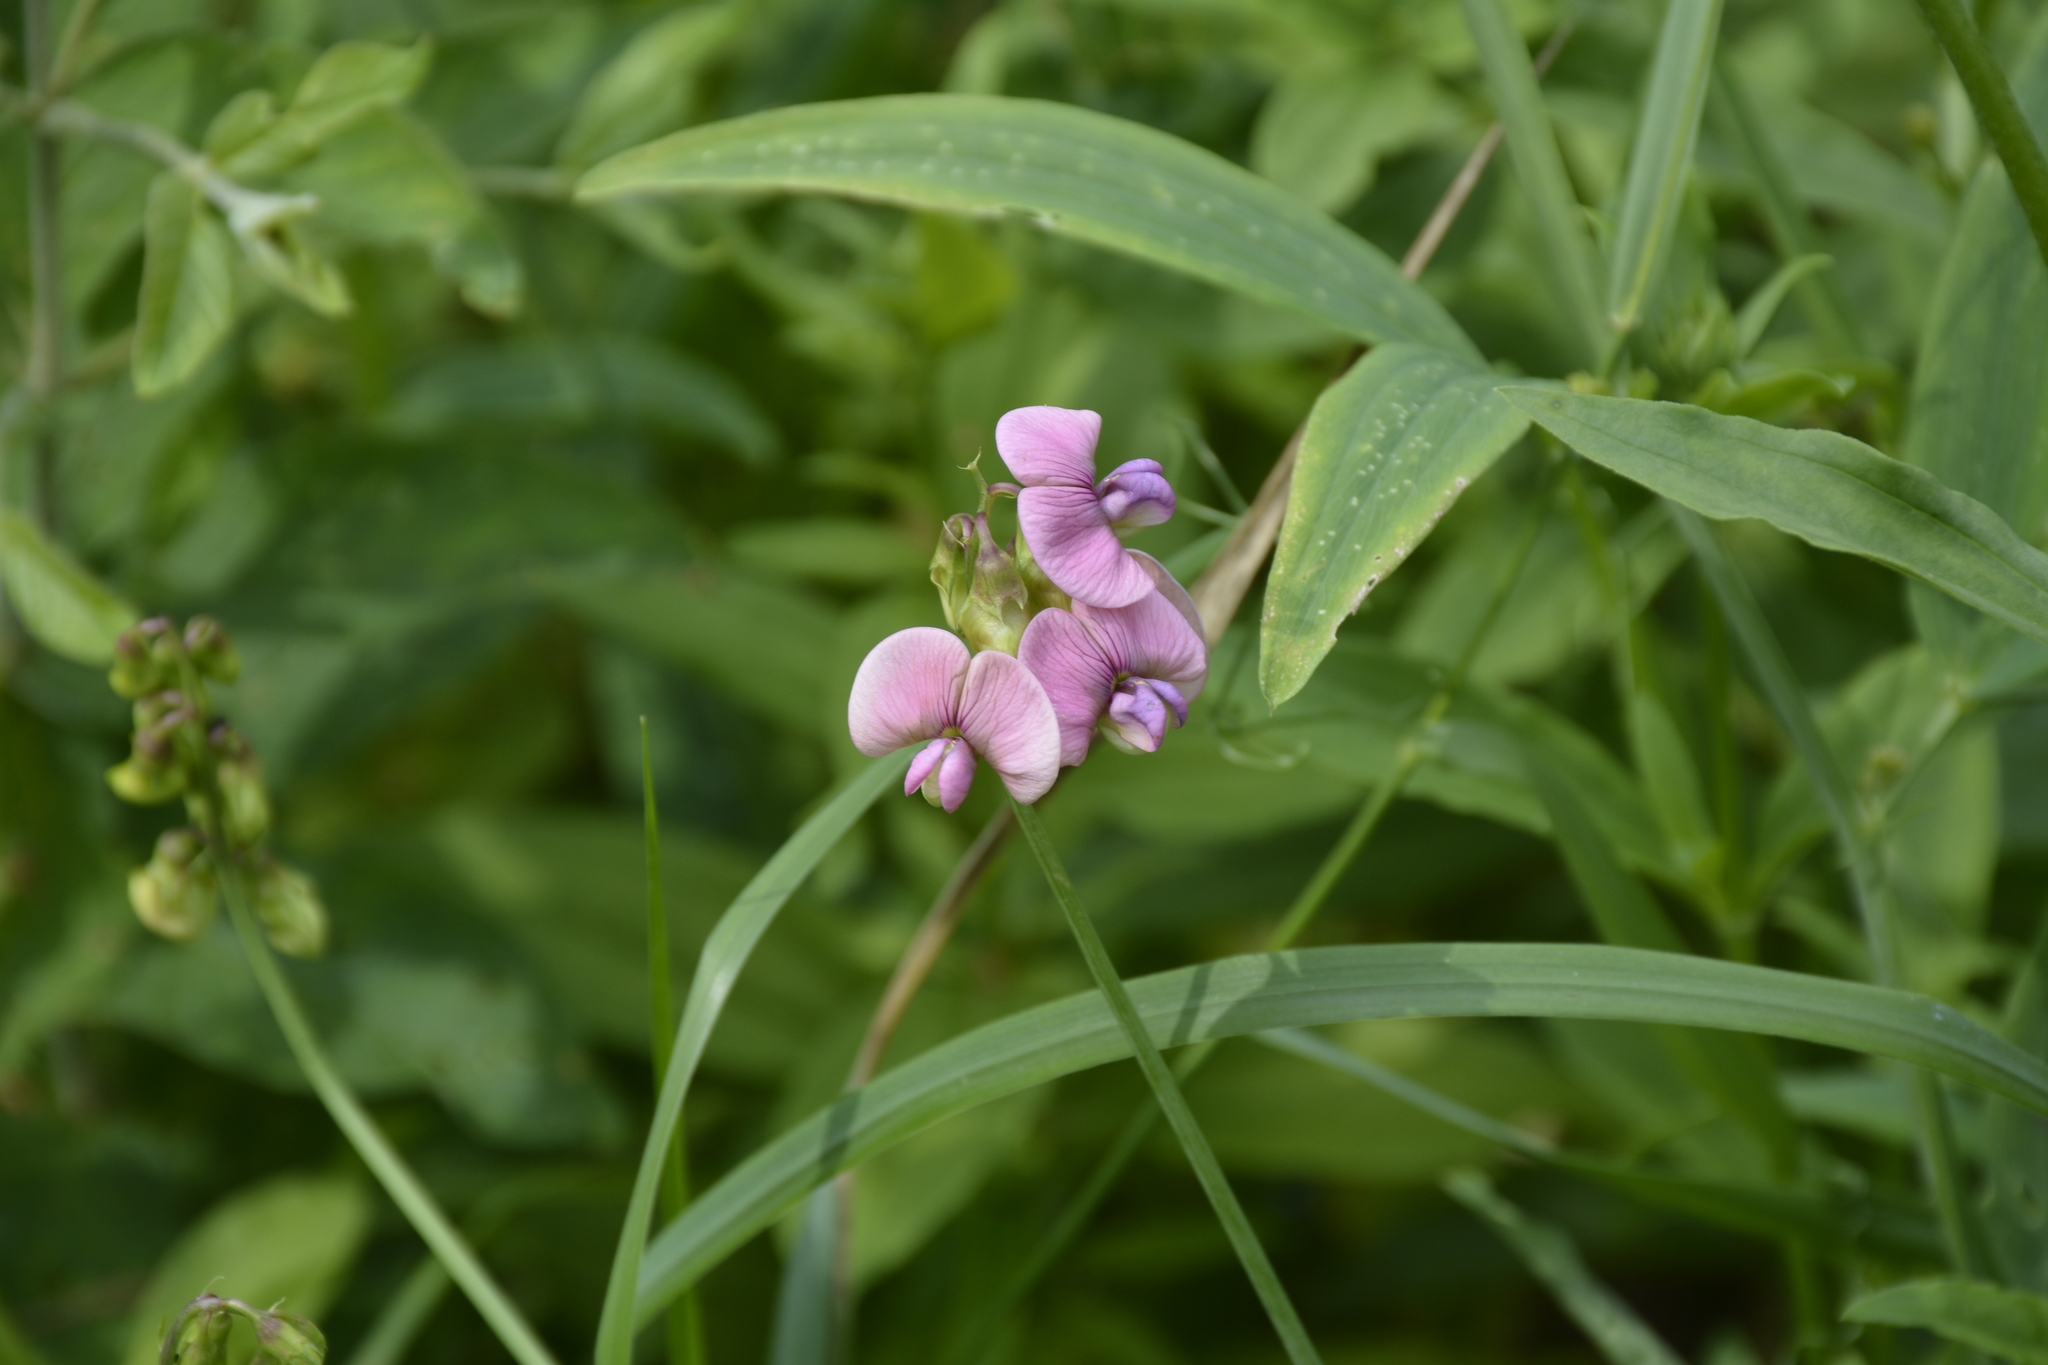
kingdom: Plantae
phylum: Tracheophyta
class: Magnoliopsida
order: Fabales
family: Fabaceae
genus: Lathyrus
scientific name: Lathyrus sylvestris
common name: Flat pea
